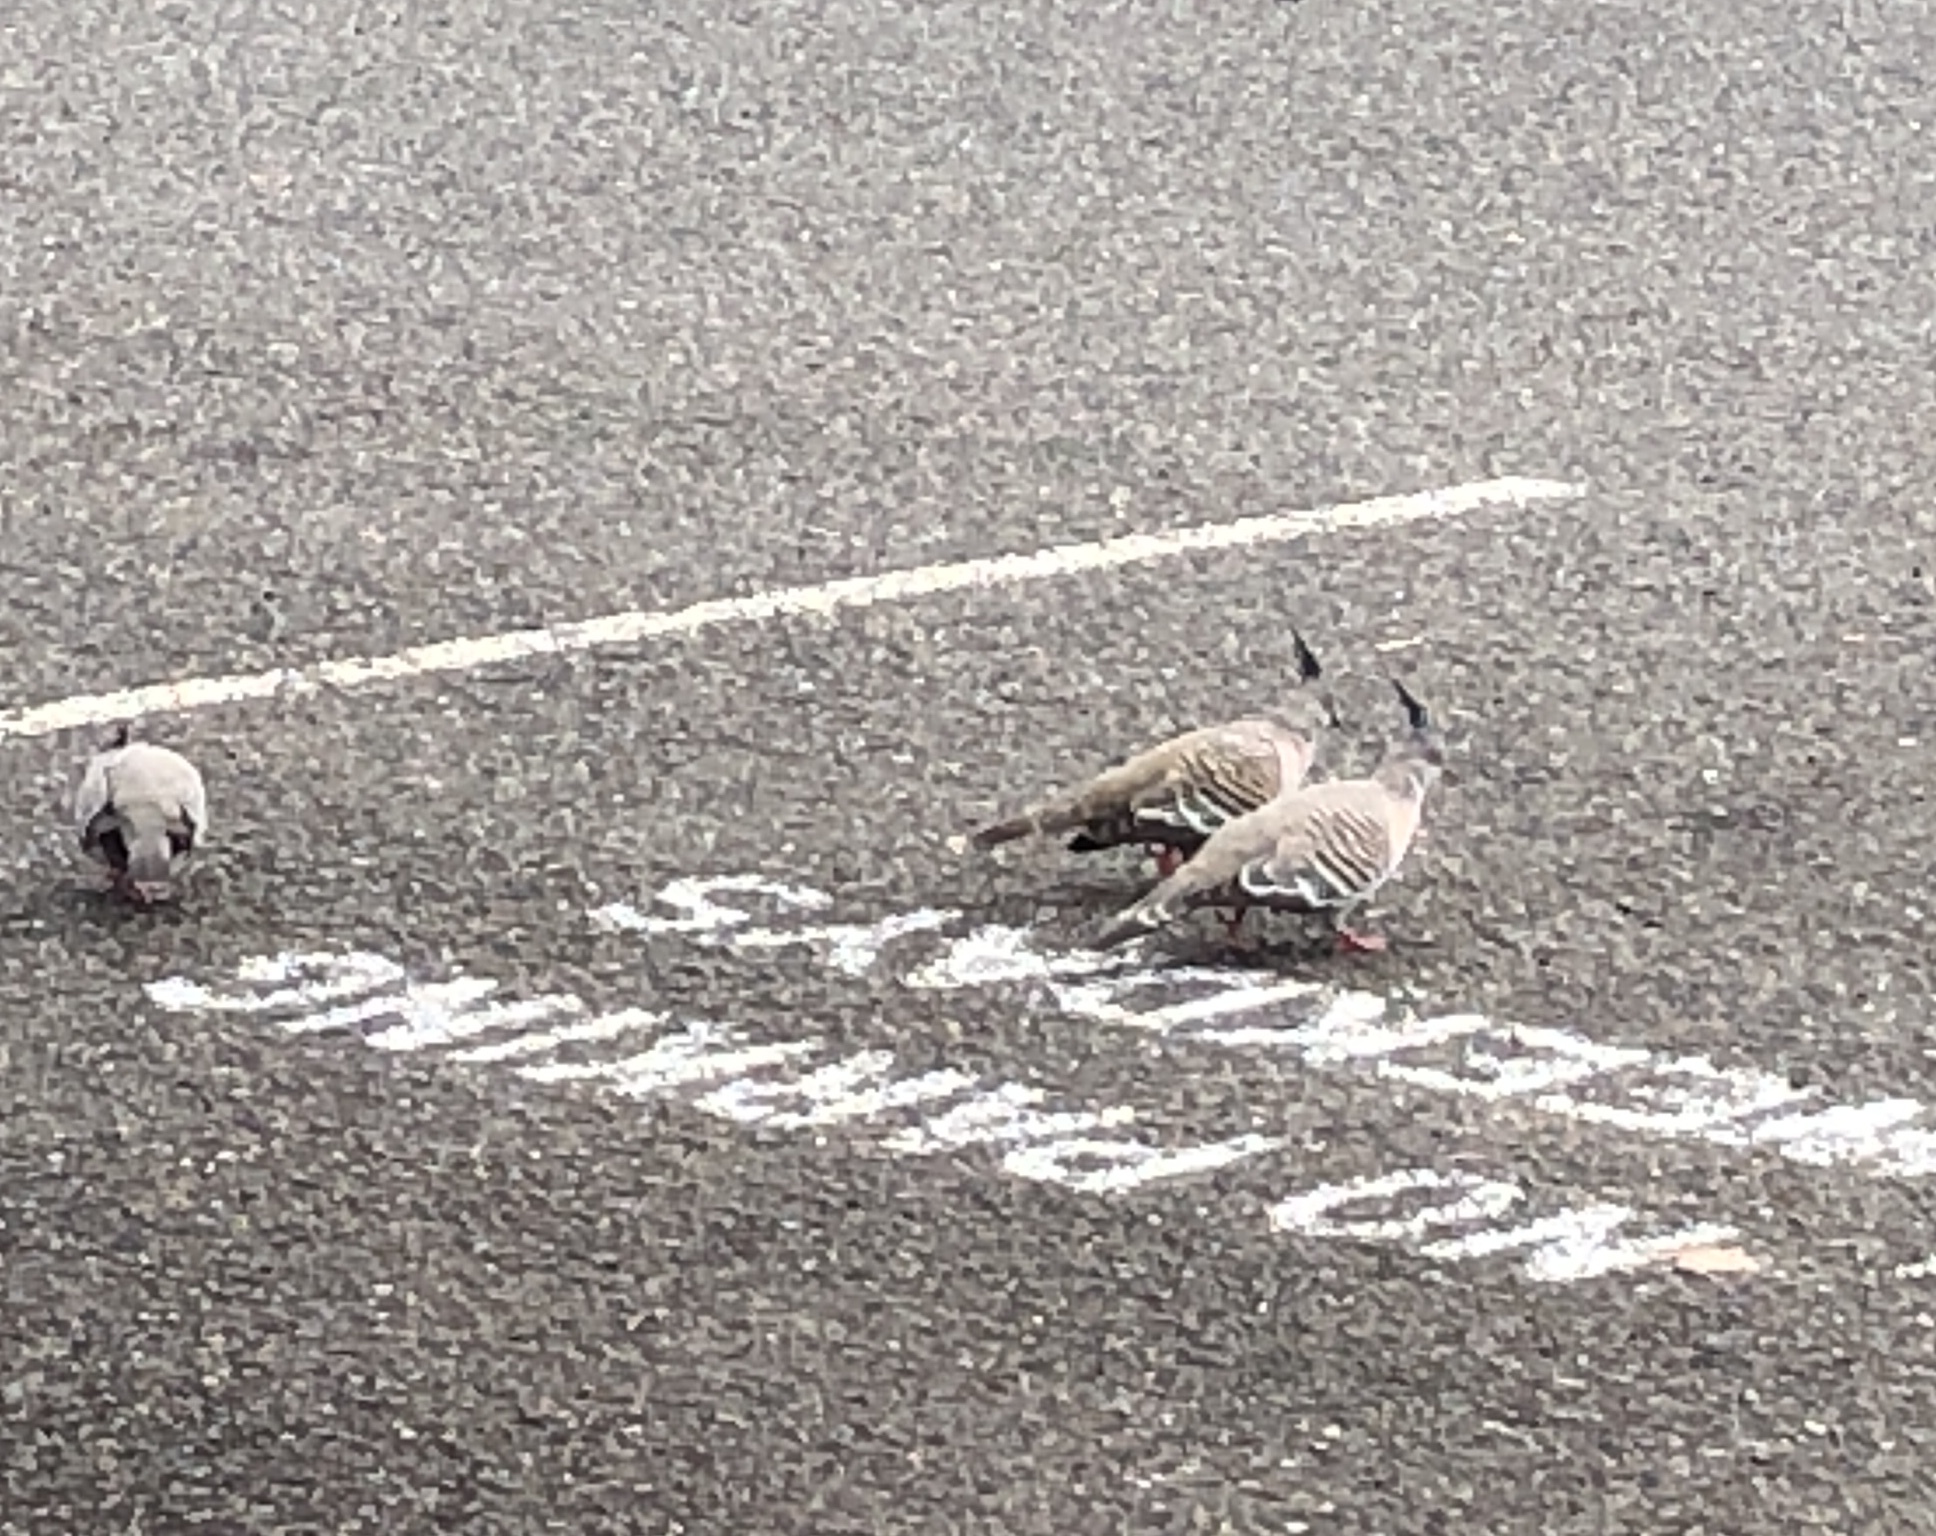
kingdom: Animalia
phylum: Chordata
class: Aves
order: Columbiformes
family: Columbidae
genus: Ocyphaps
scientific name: Ocyphaps lophotes
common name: Crested pigeon
